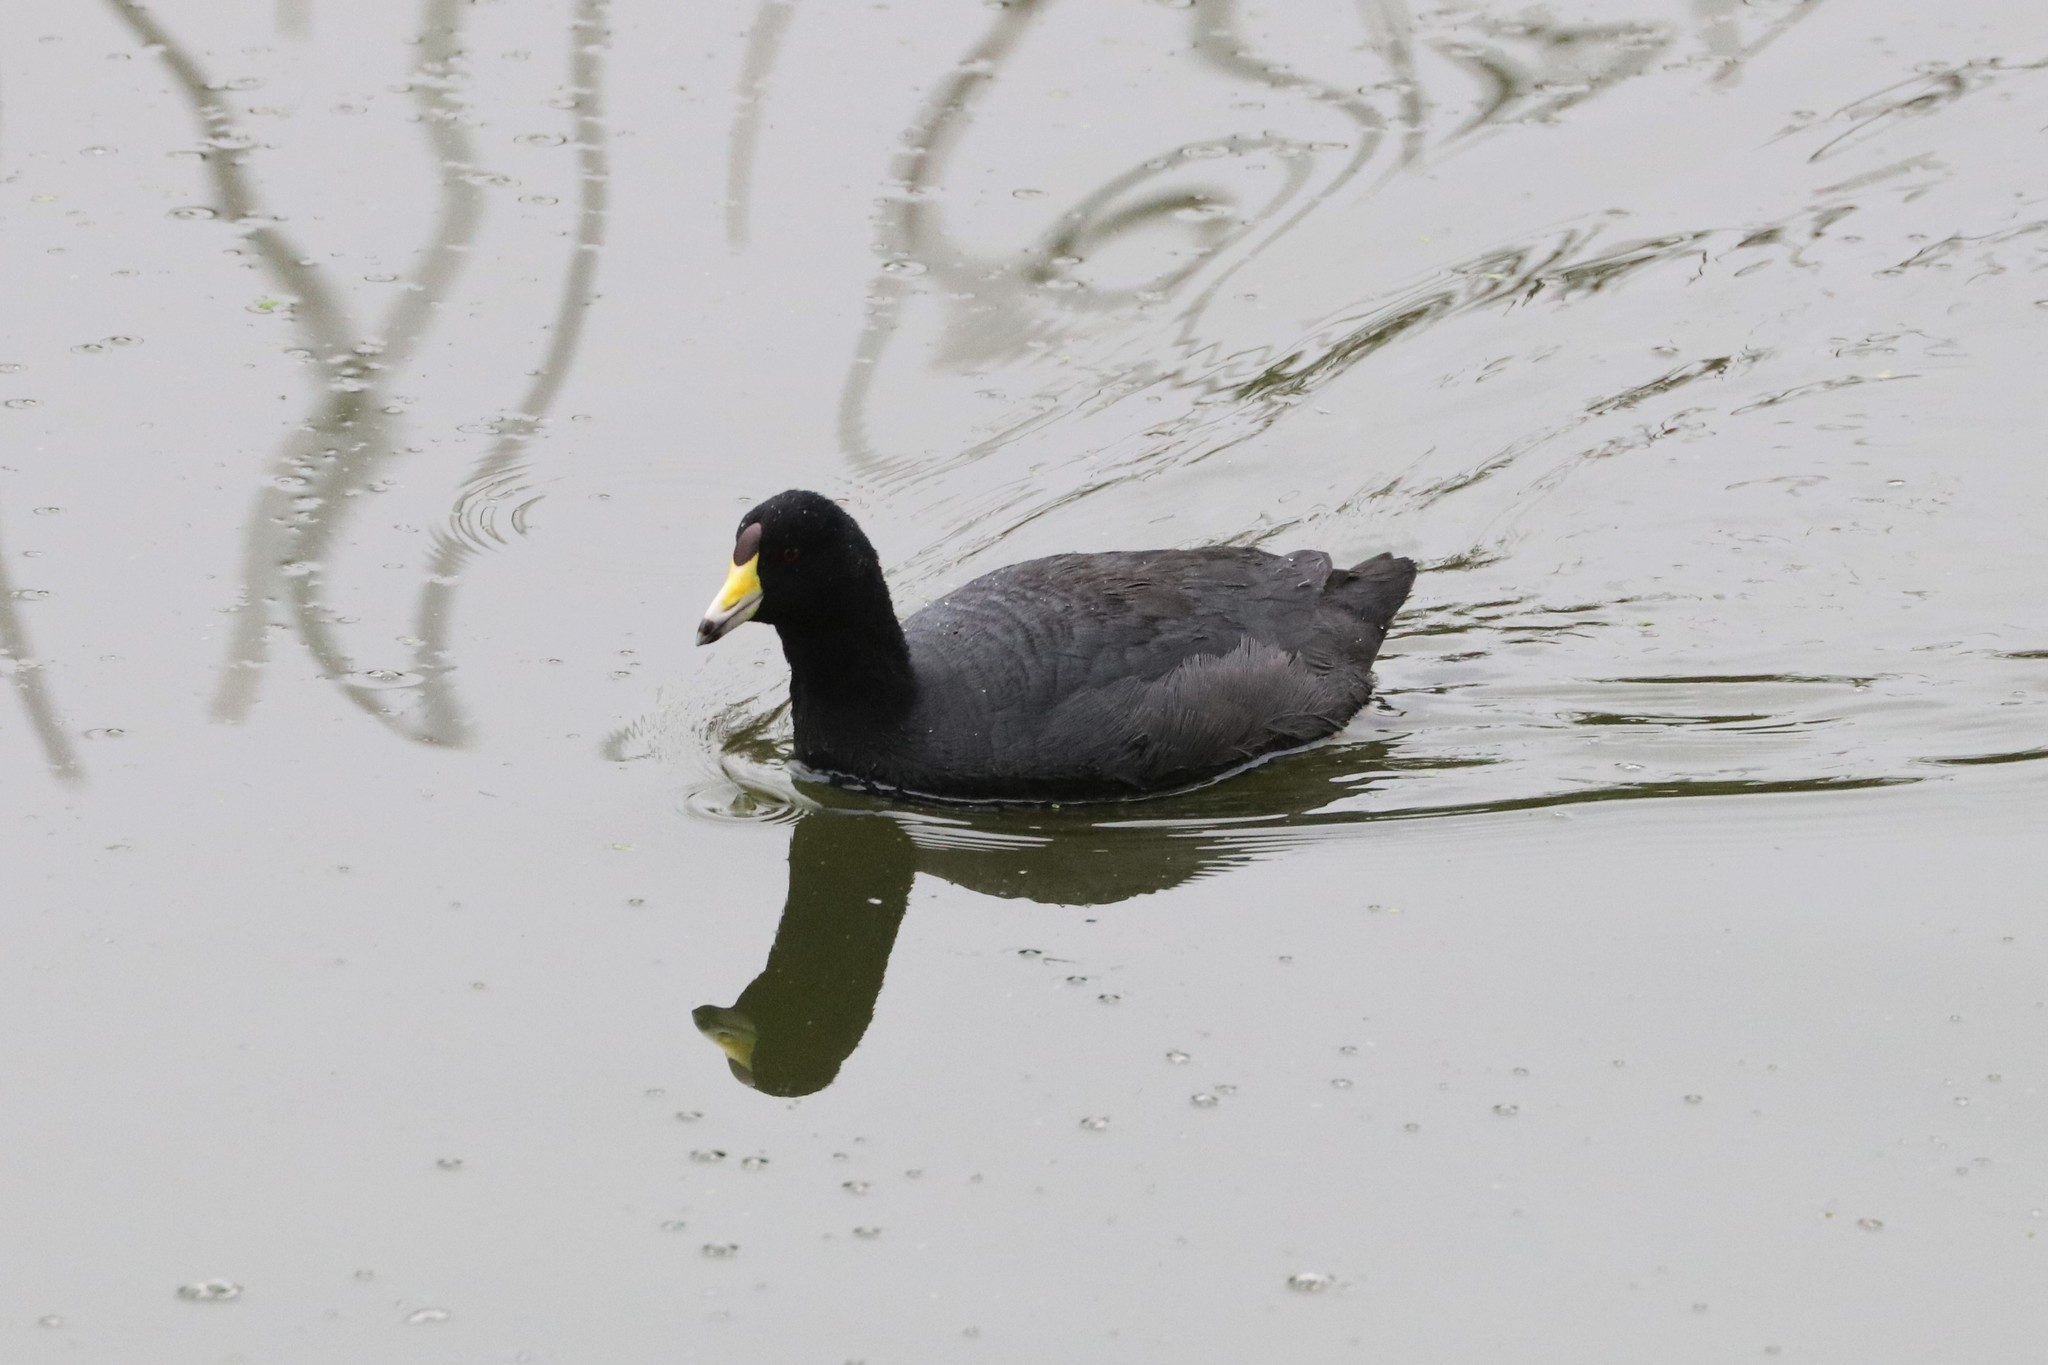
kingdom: Animalia
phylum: Chordata
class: Aves
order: Gruiformes
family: Rallidae
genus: Fulica
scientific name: Fulica americana
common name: American coot
